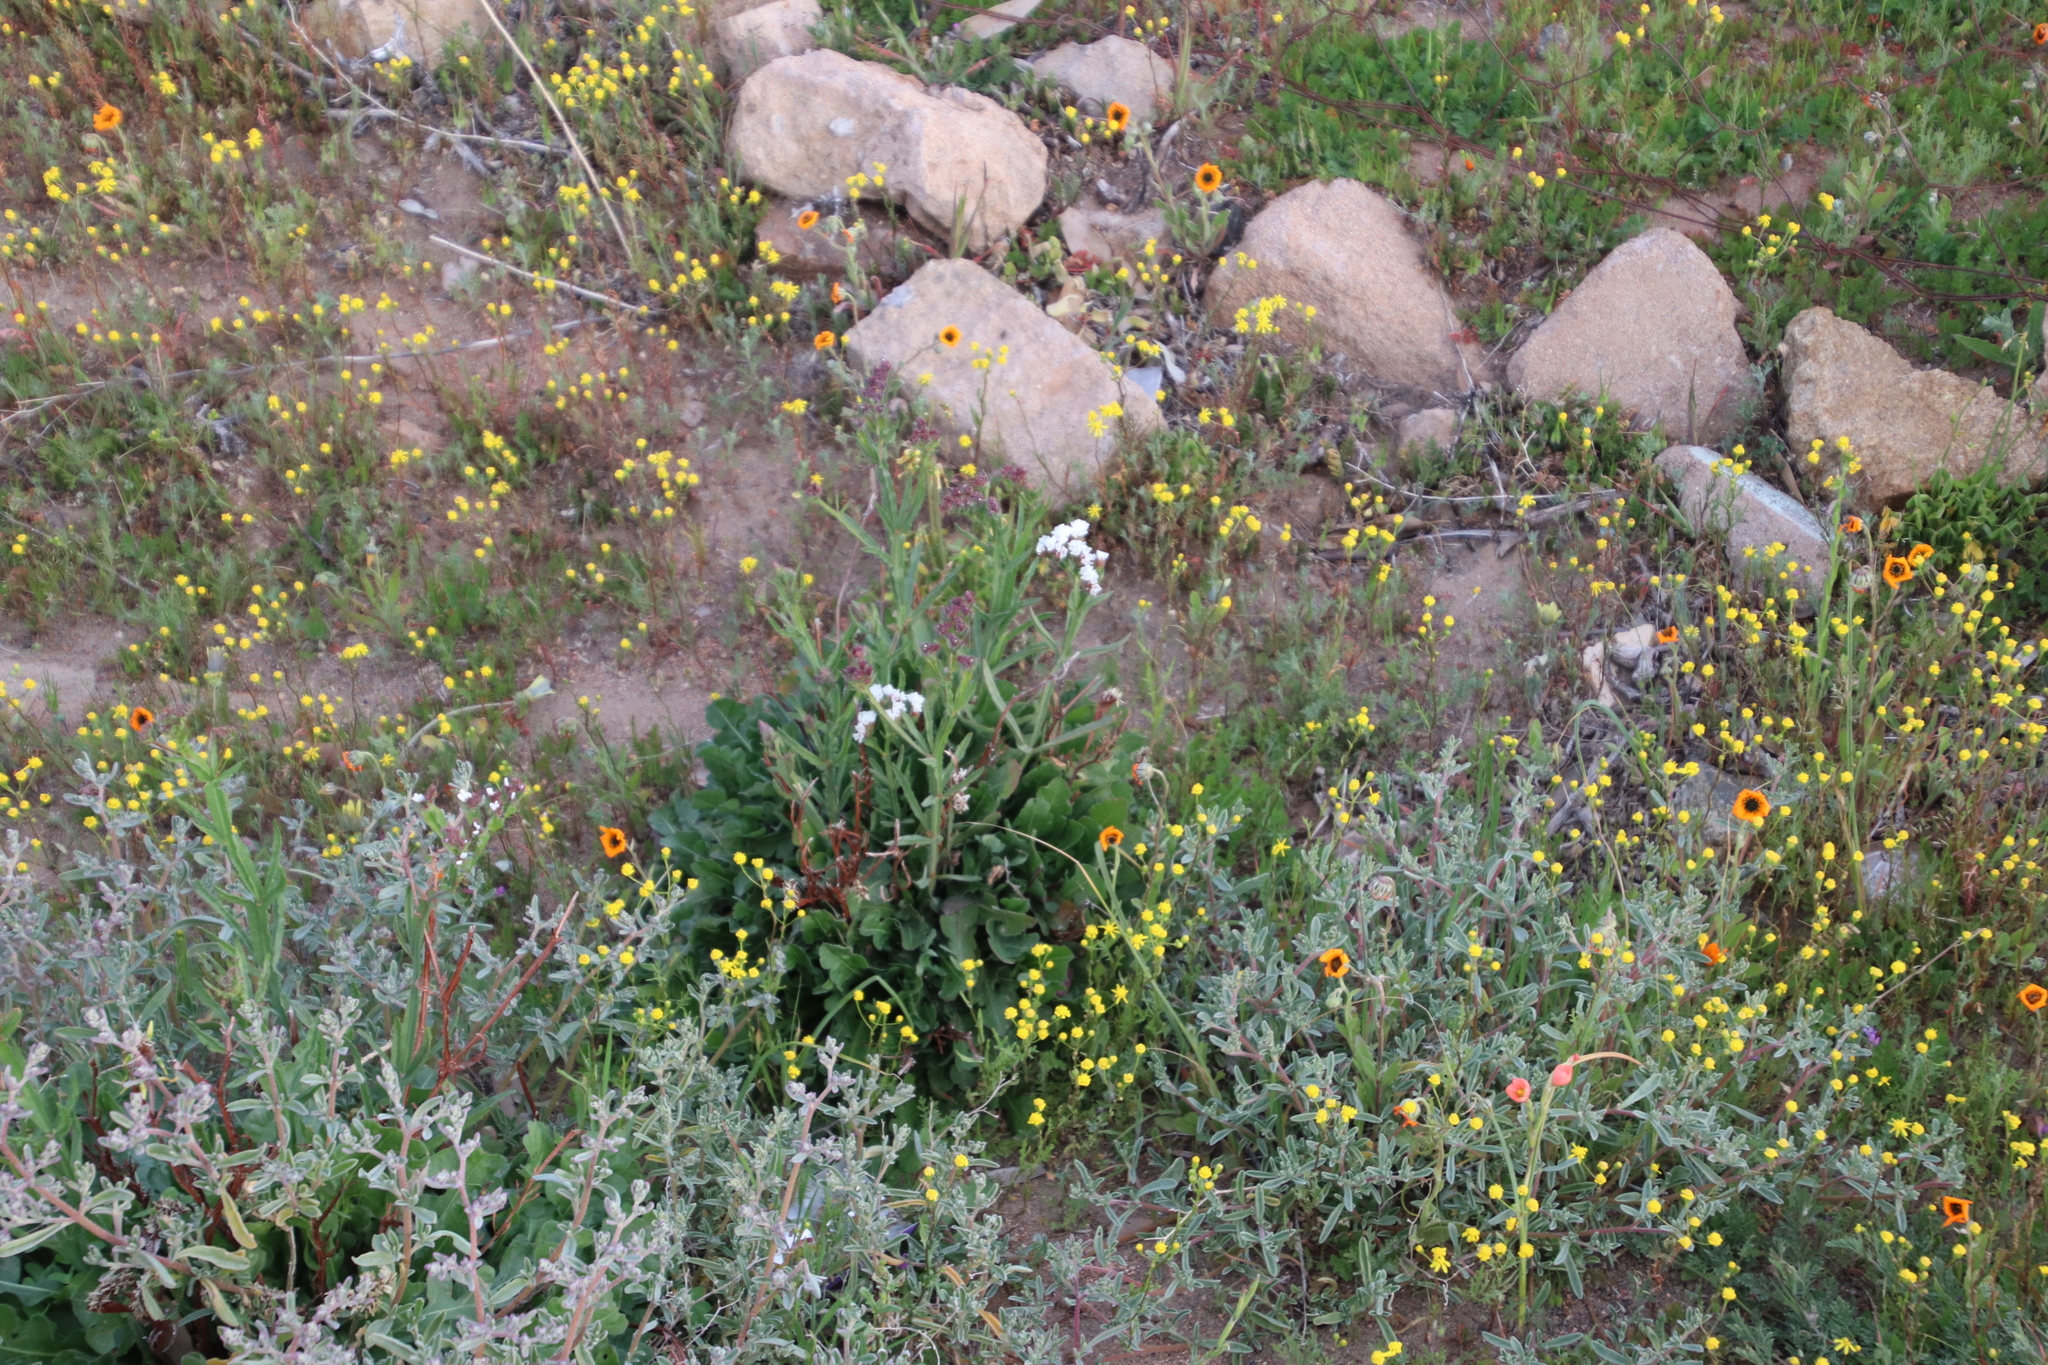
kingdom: Plantae
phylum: Tracheophyta
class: Magnoliopsida
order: Caryophyllales
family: Plumbaginaceae
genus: Limonium
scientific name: Limonium sinuatum
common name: Statice
